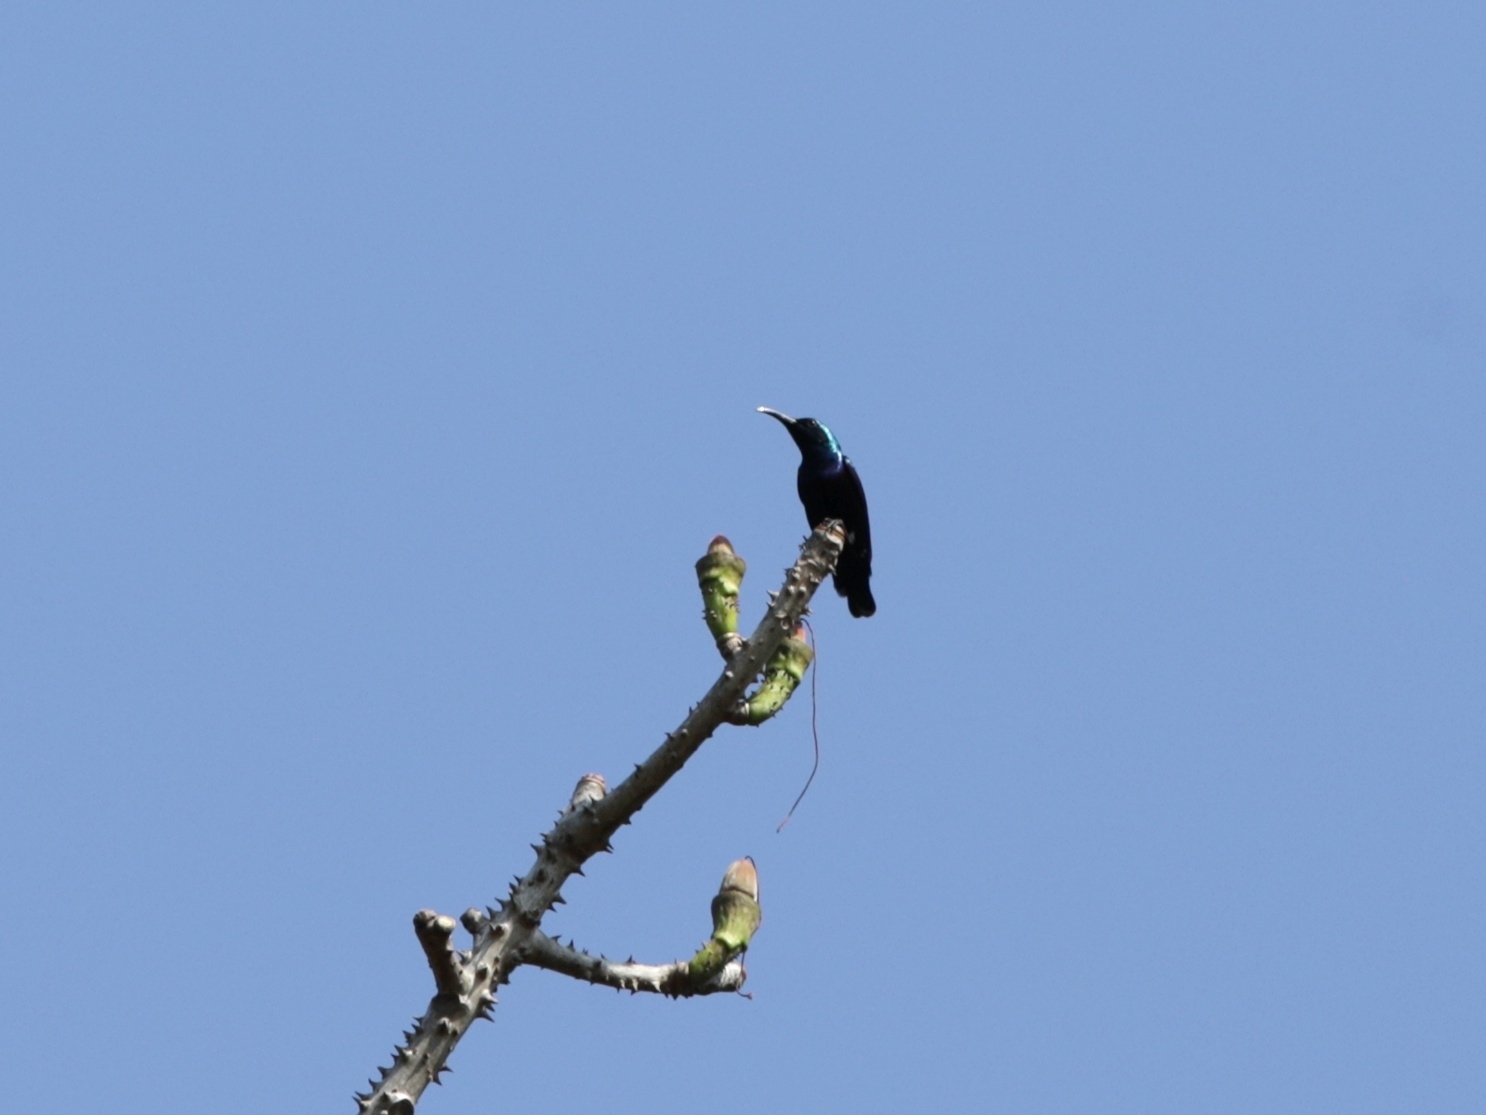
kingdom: Animalia
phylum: Chordata
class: Aves
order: Passeriformes
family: Nectariniidae
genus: Cinnyris
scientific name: Cinnyris asiaticus
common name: Purple sunbird
